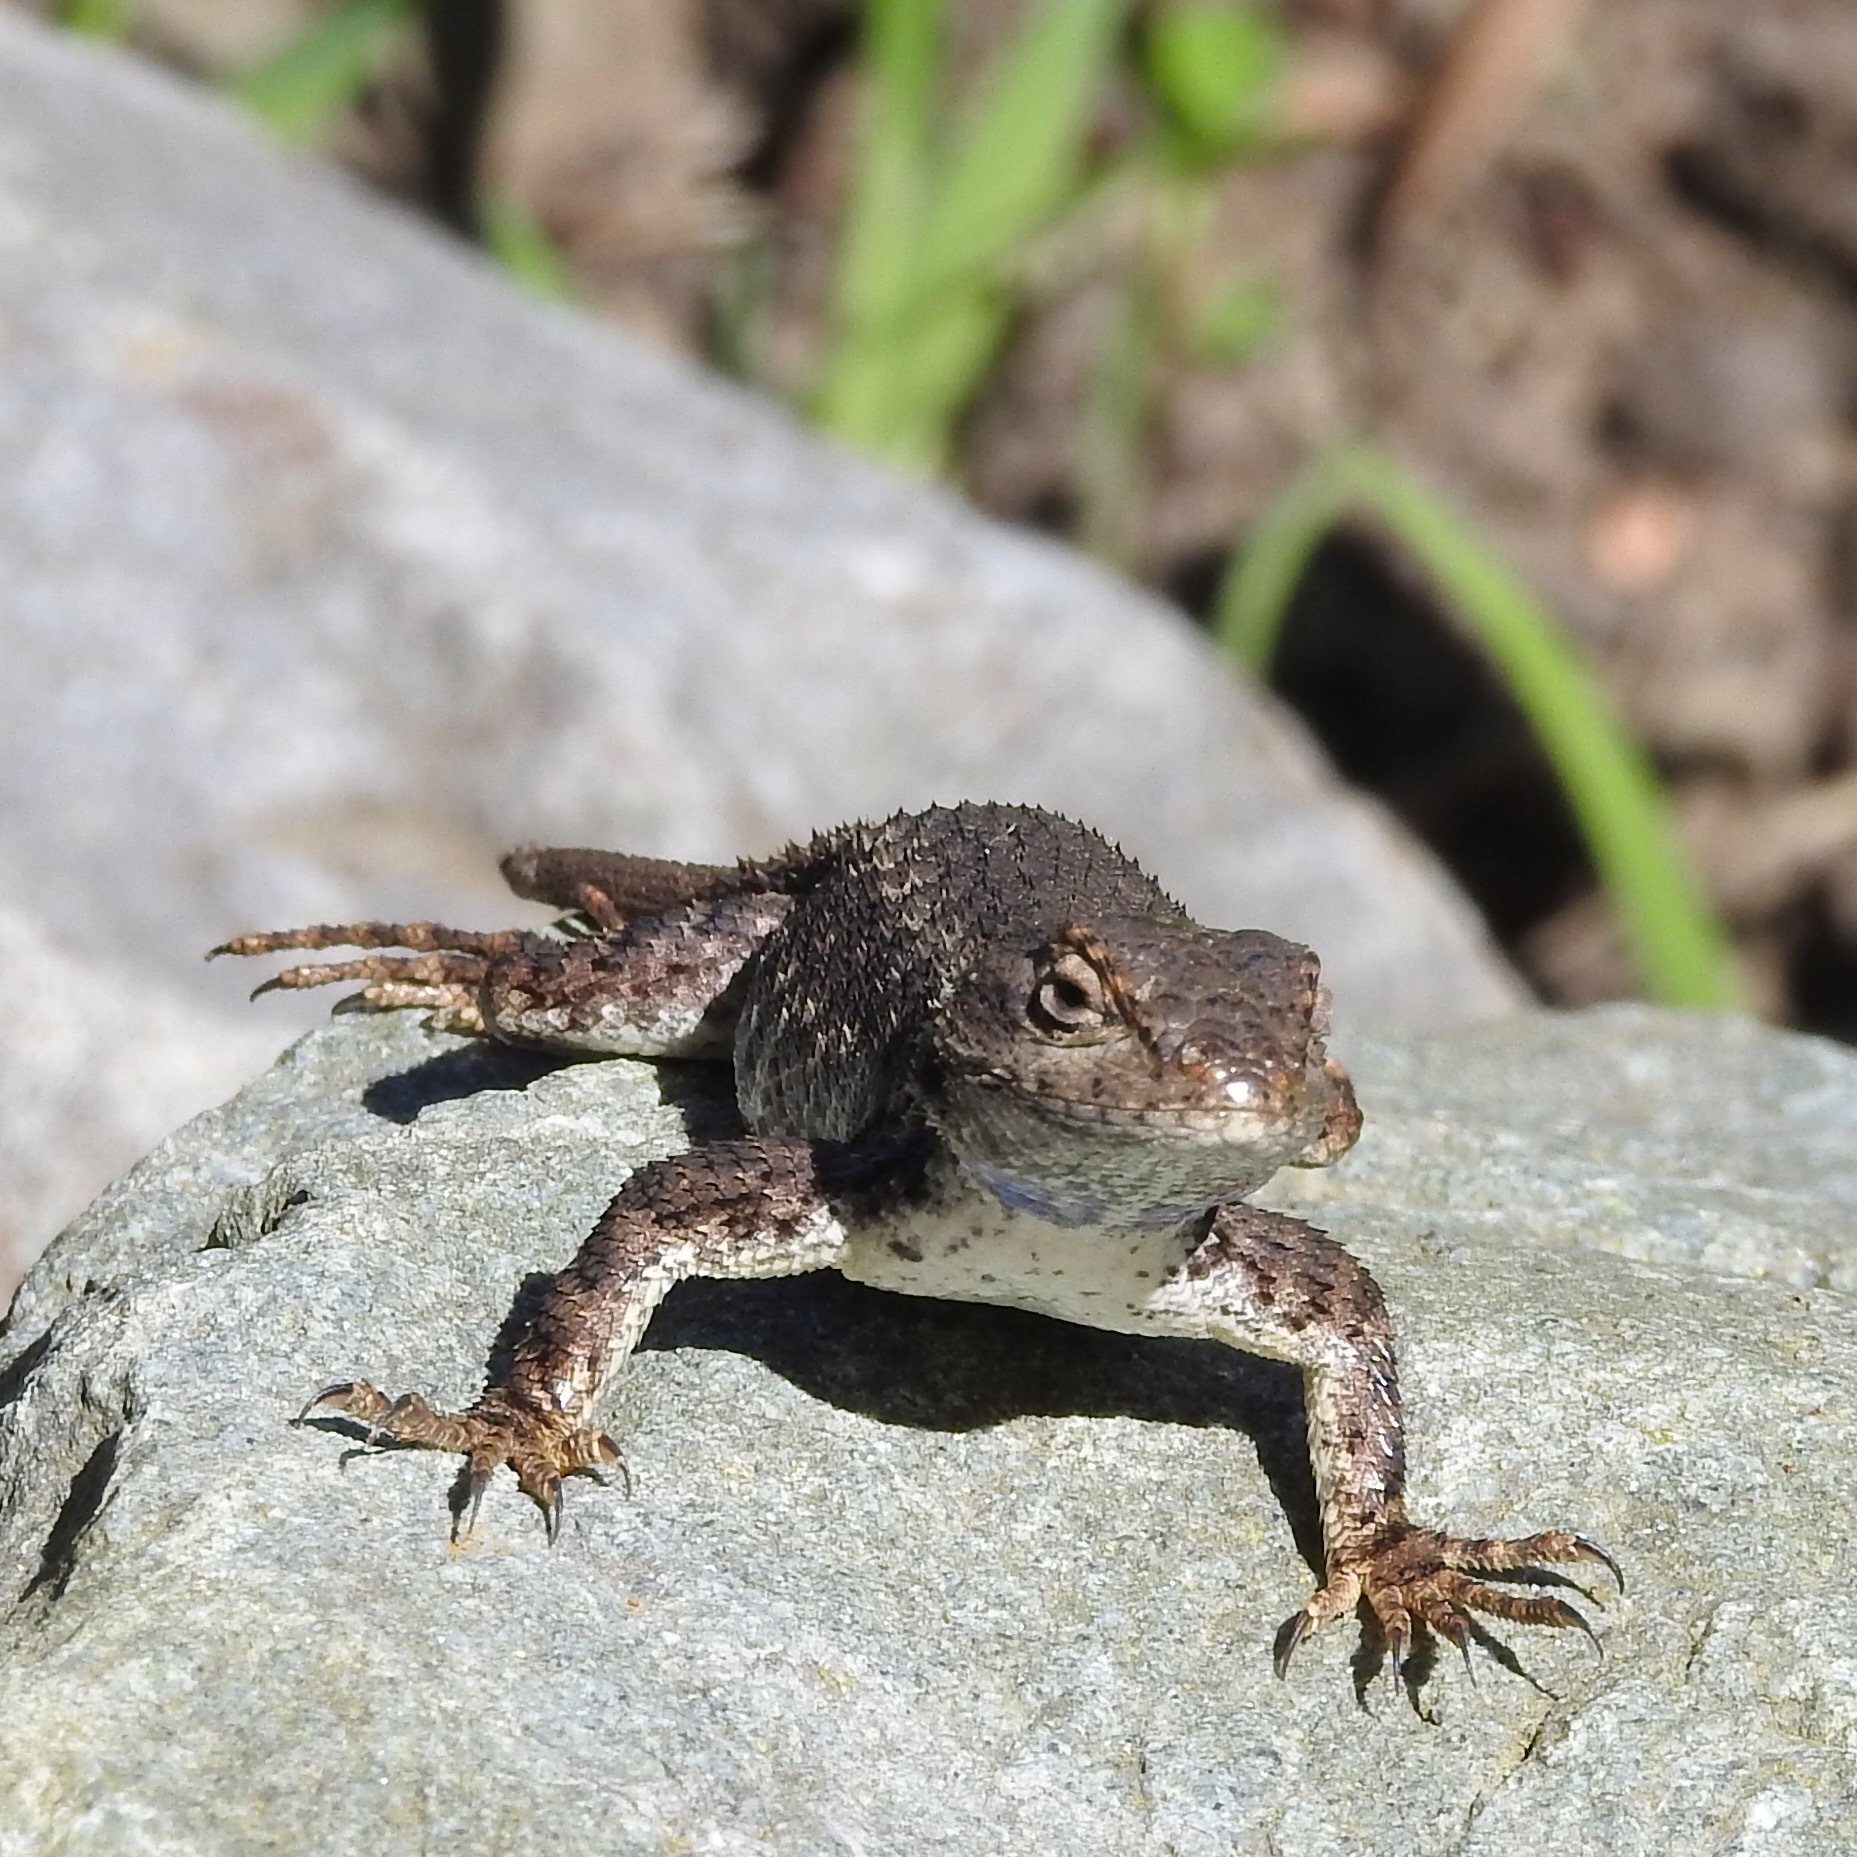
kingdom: Animalia
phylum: Chordata
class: Squamata
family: Phrynosomatidae
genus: Sceloporus
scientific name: Sceloporus occidentalis
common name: Western fence lizard
